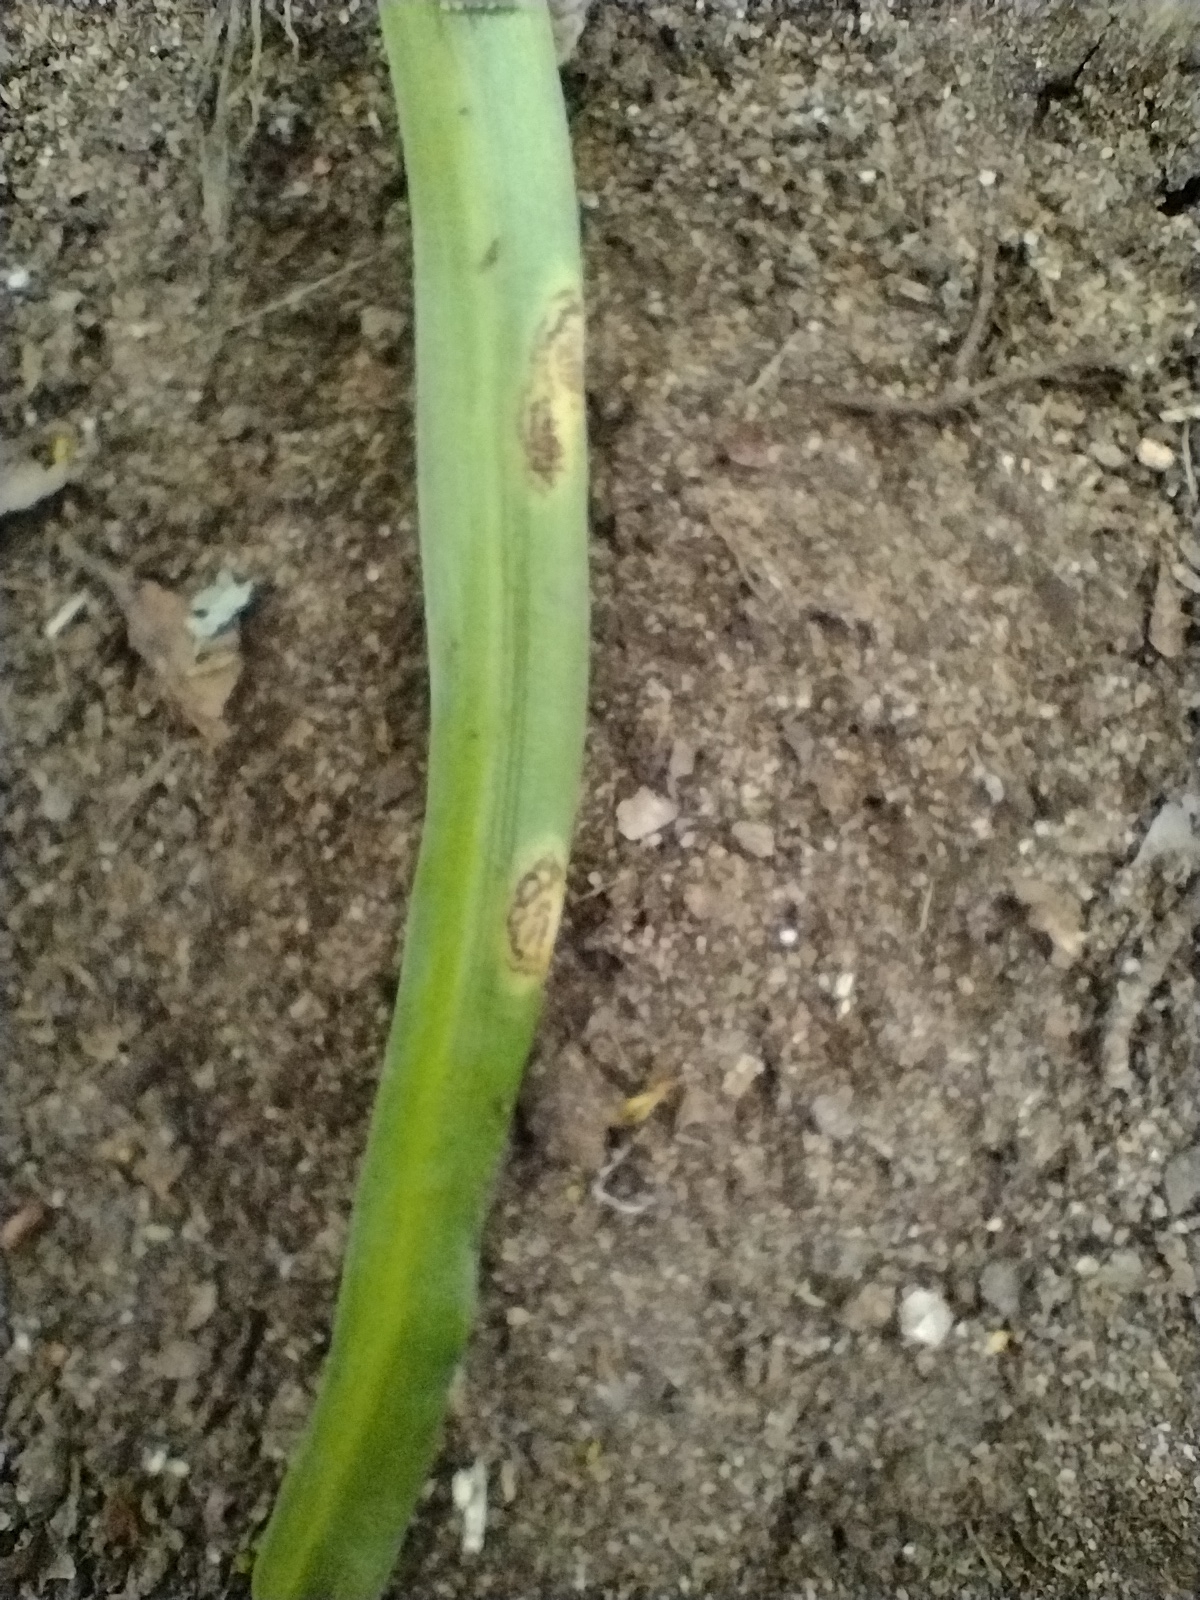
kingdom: Fungi
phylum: Basidiomycota
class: Pucciniomycetes
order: Pucciniales
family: Pucciniaceae
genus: Uromyces
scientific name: Uromyces hyacinthi
